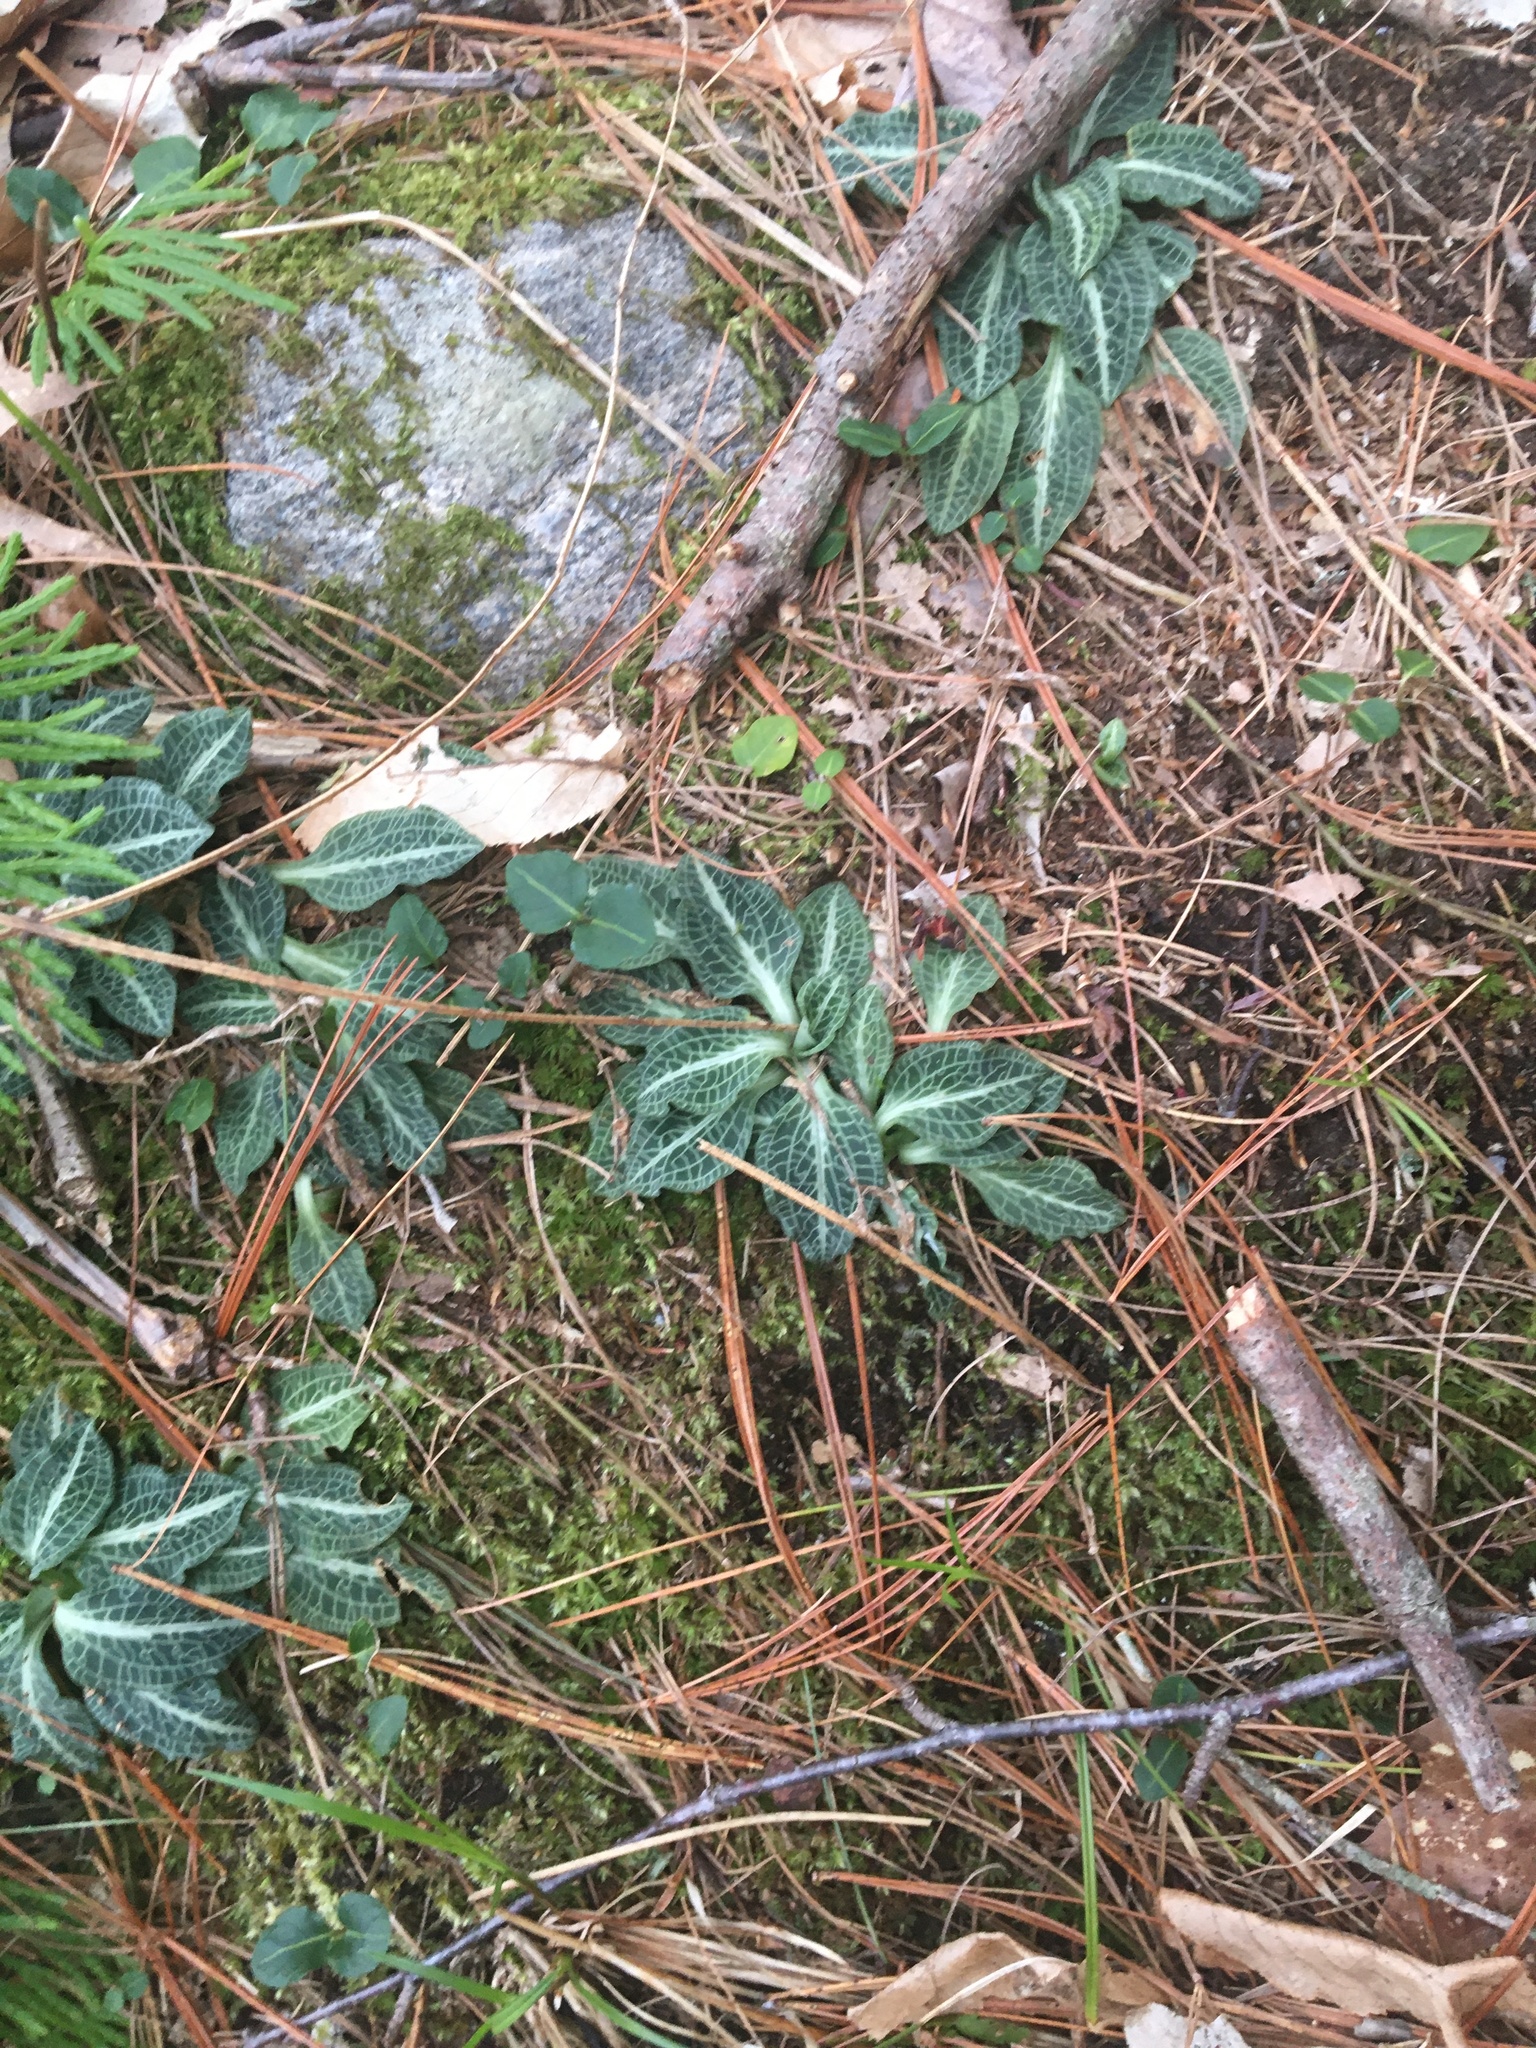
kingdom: Plantae
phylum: Tracheophyta
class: Liliopsida
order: Asparagales
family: Orchidaceae
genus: Goodyera
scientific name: Goodyera pubescens
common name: Downy rattlesnake-plantain
